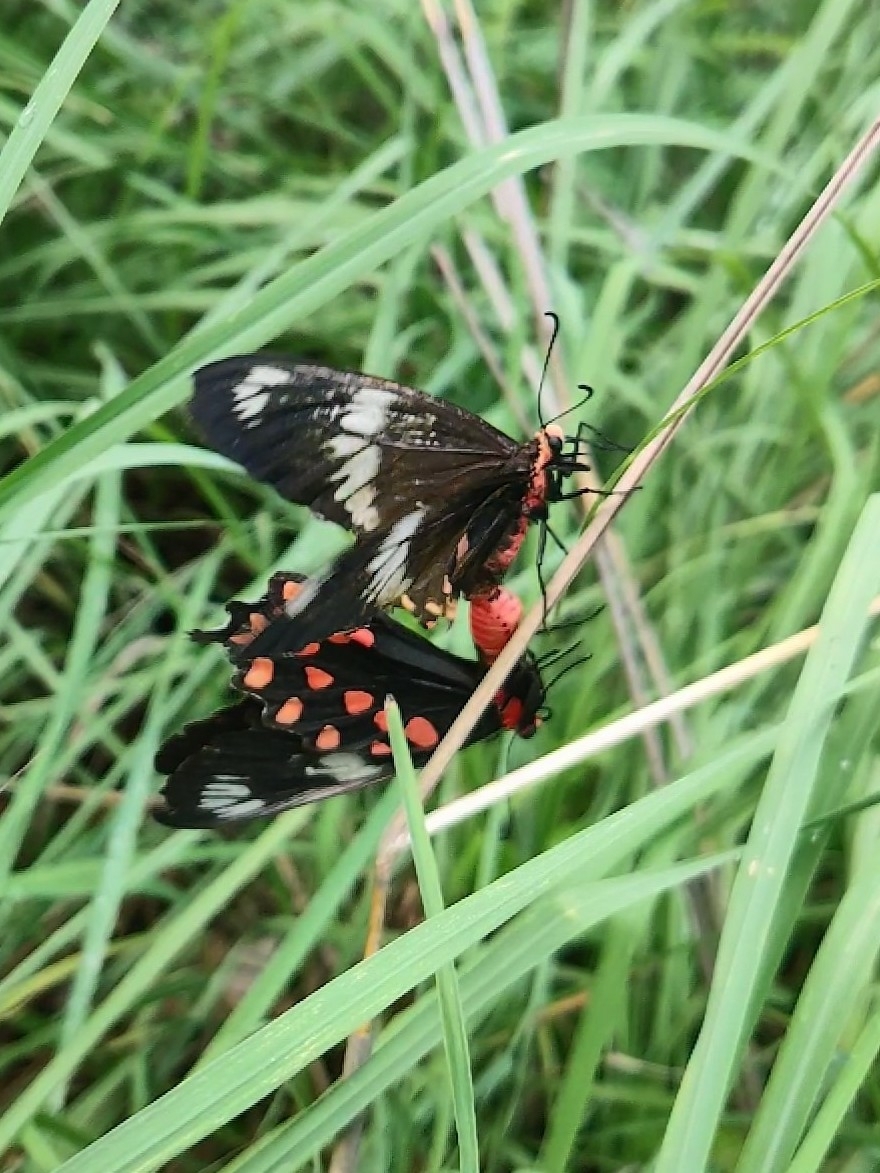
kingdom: Animalia
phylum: Arthropoda
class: Insecta
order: Lepidoptera
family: Papilionidae
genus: Pachliopta
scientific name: Pachliopta hector
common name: Crimson rose
